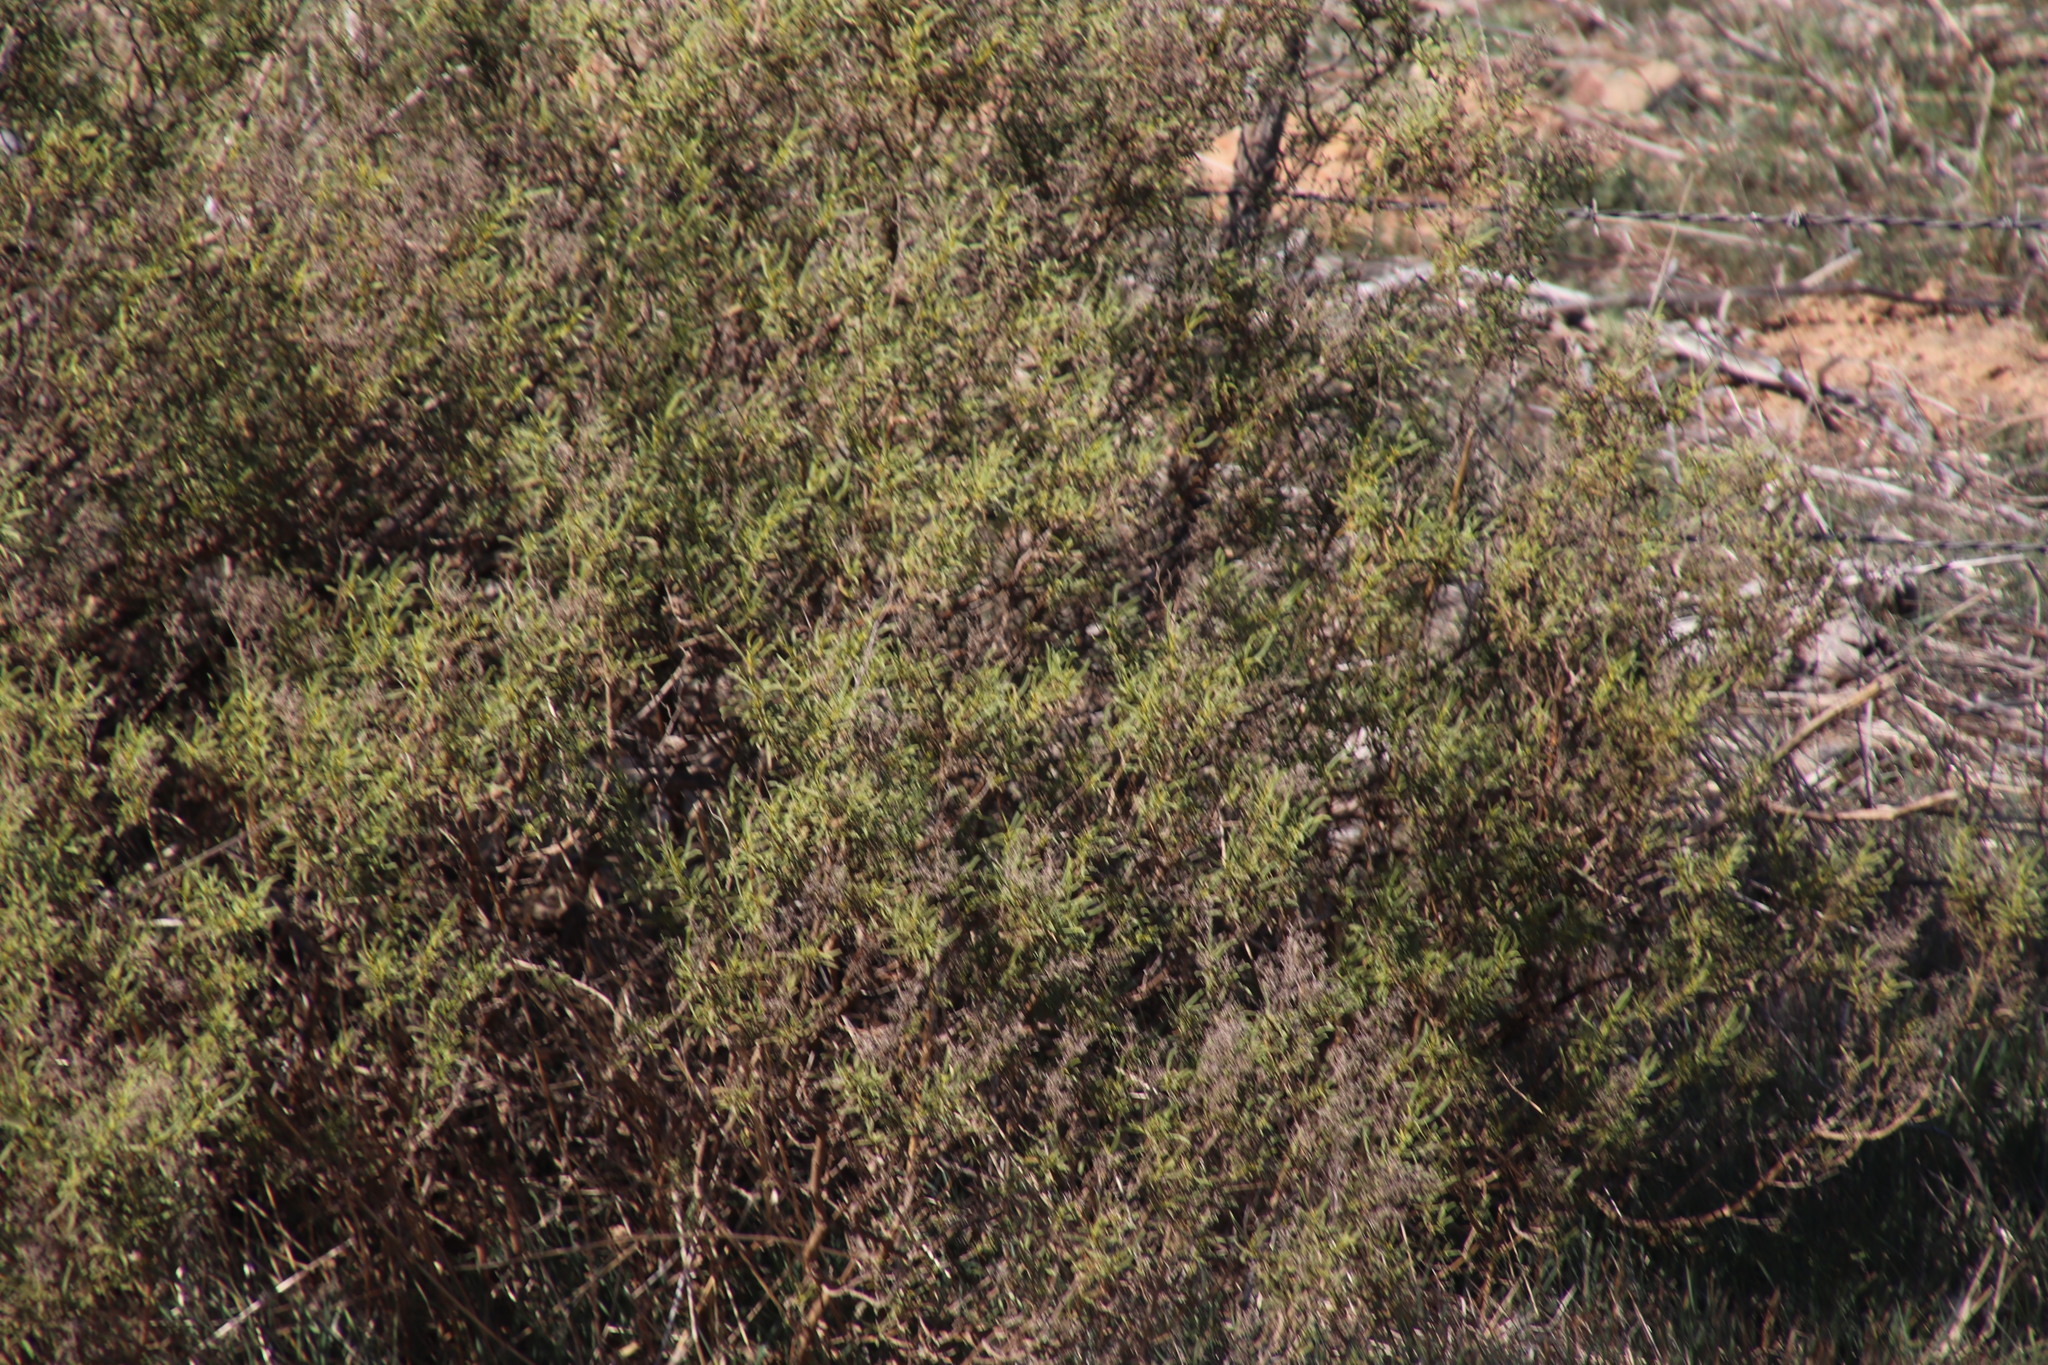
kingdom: Plantae
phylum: Tracheophyta
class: Magnoliopsida
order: Caryophyllales
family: Aizoaceae
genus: Aizoon
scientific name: Aizoon africanum
